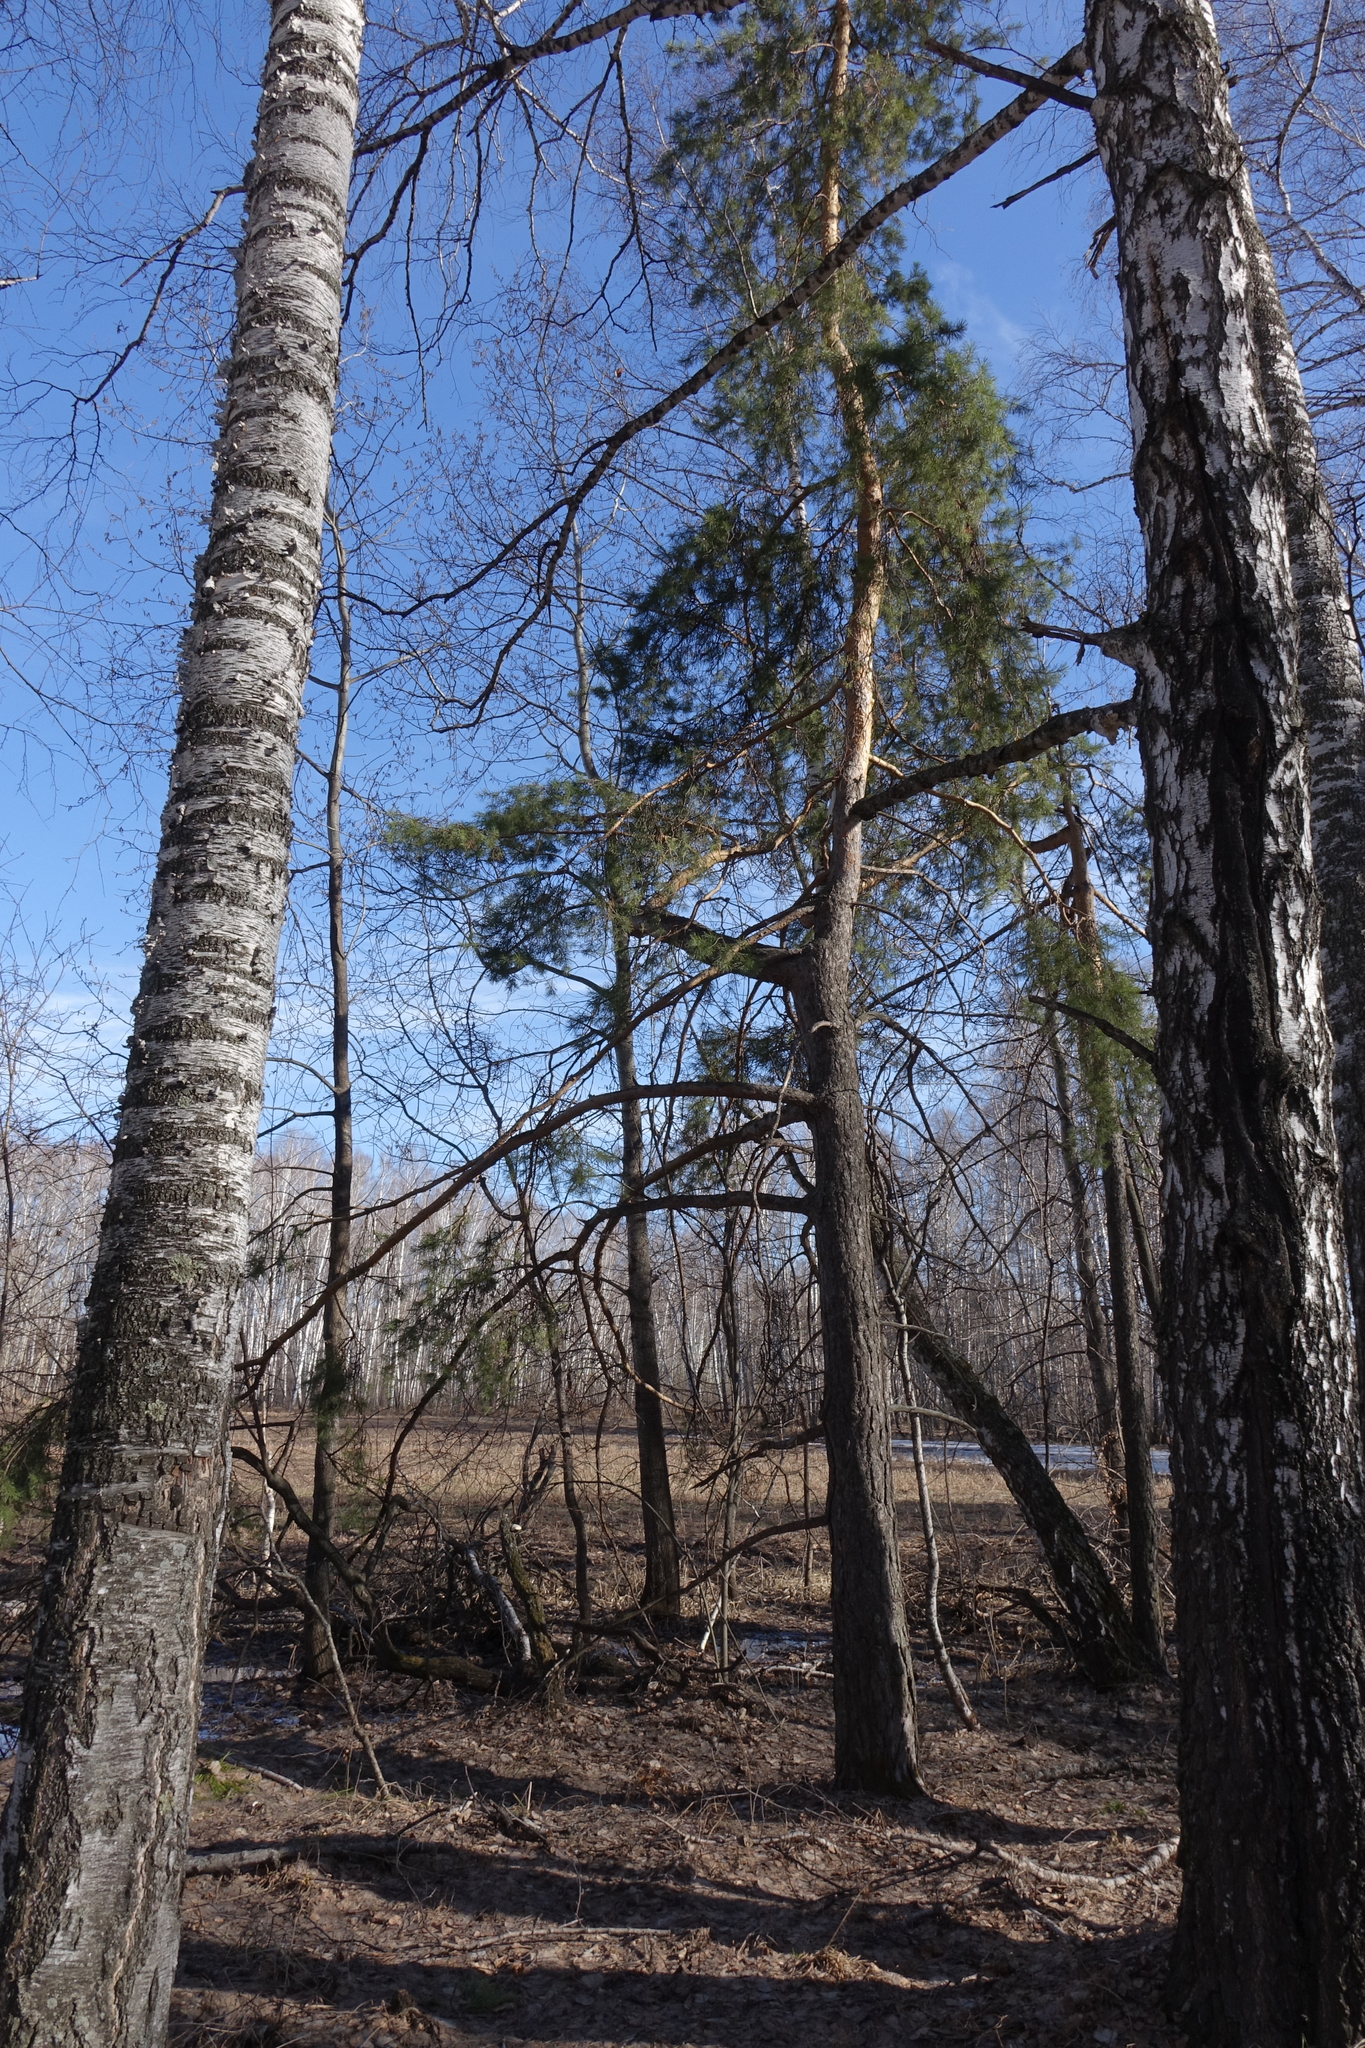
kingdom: Plantae
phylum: Tracheophyta
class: Pinopsida
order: Pinales
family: Pinaceae
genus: Pinus
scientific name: Pinus sylvestris
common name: Scots pine
